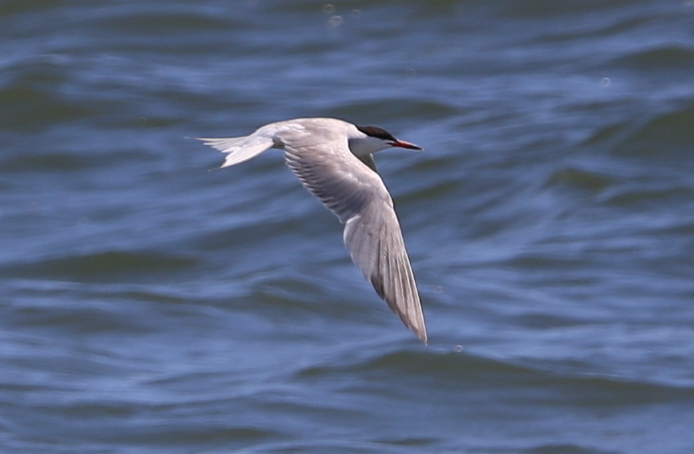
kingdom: Animalia
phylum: Chordata
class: Aves
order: Charadriiformes
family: Laridae
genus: Sterna
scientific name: Sterna hirundo
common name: Common tern
